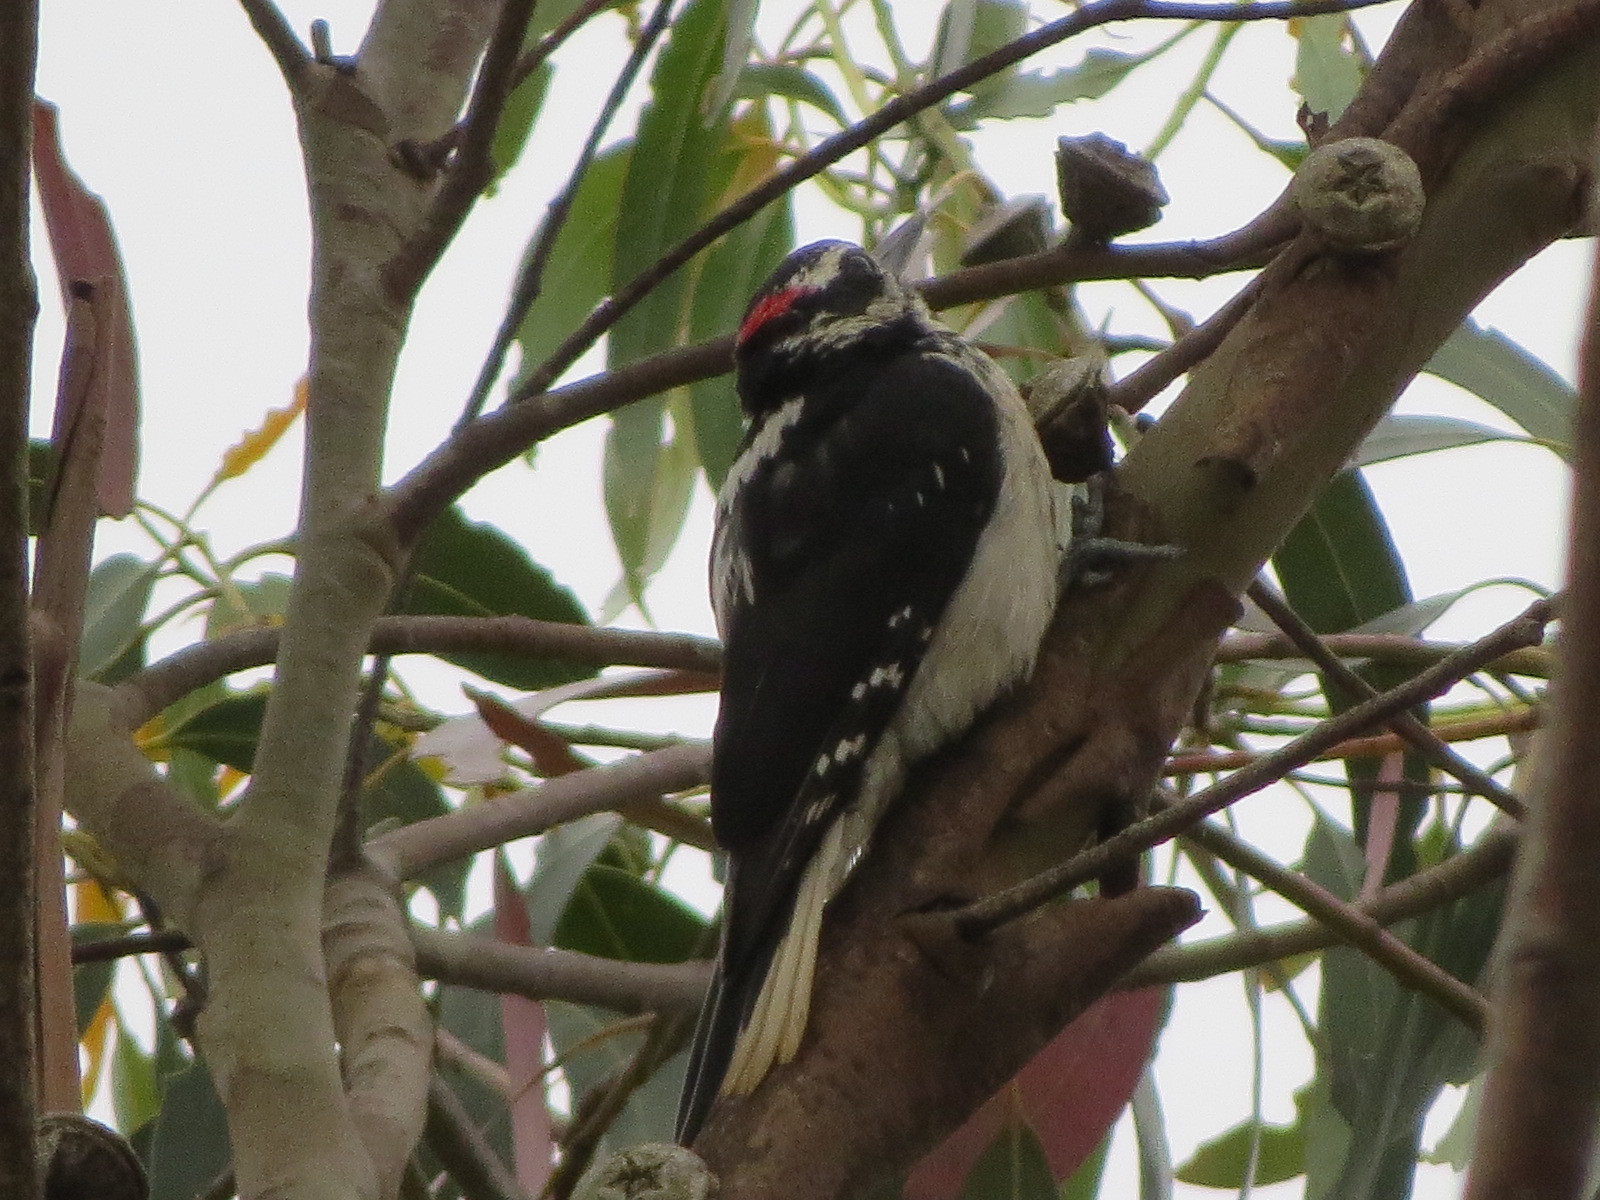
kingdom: Animalia
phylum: Chordata
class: Aves
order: Piciformes
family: Picidae
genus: Leuconotopicus
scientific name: Leuconotopicus villosus
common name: Hairy woodpecker
